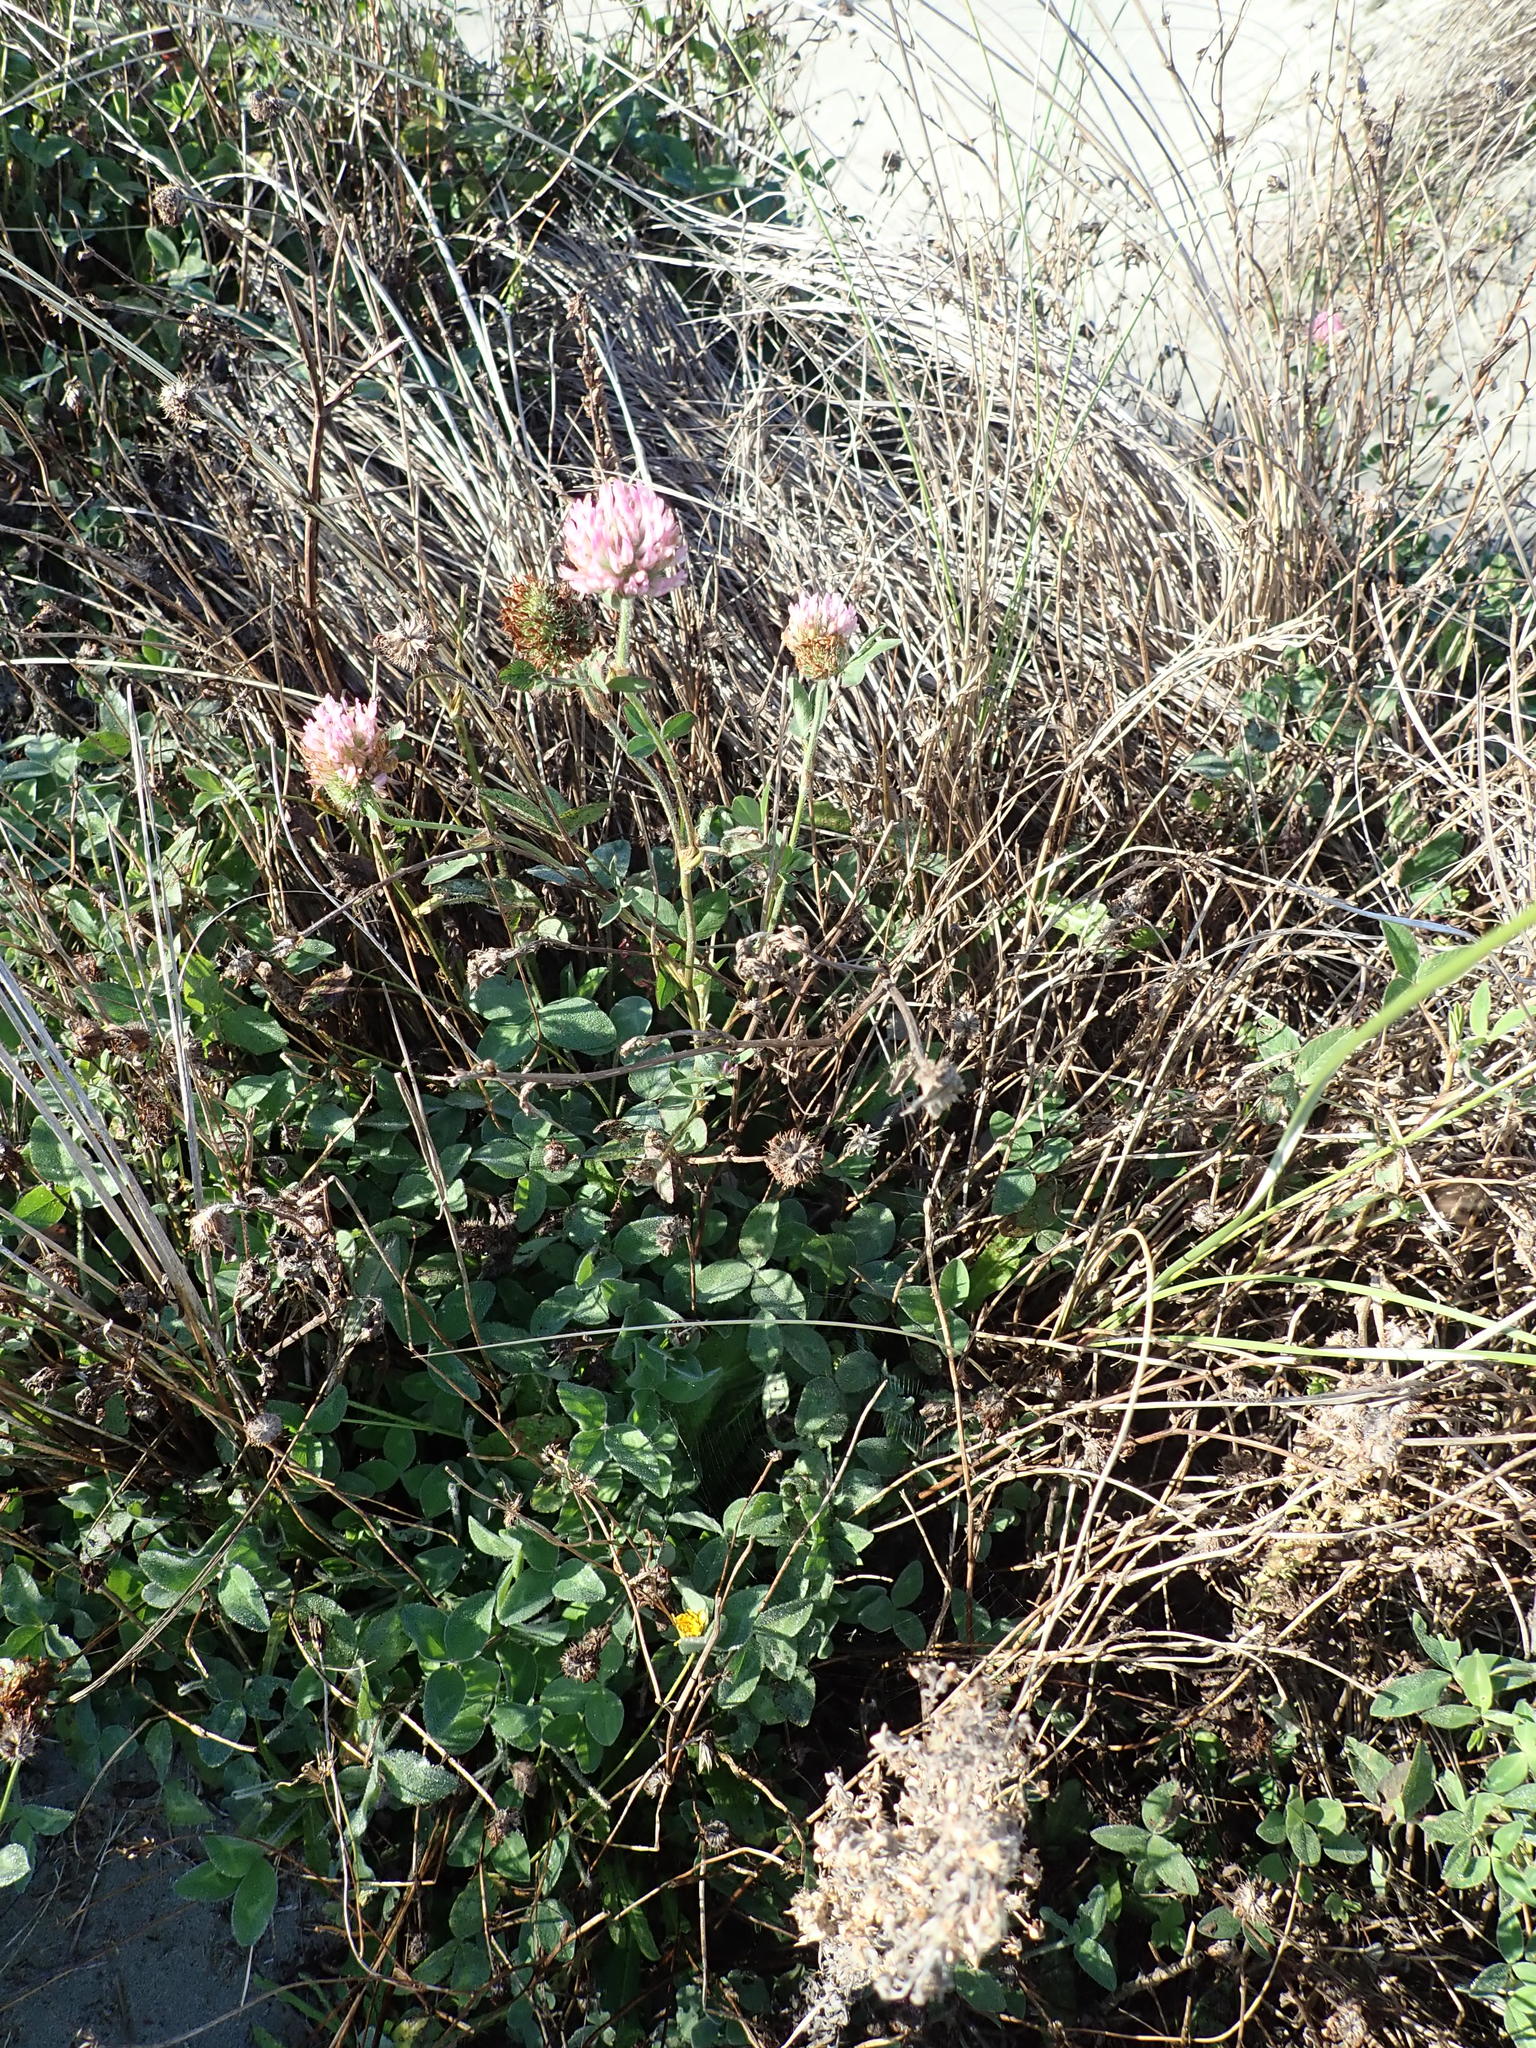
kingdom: Plantae
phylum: Tracheophyta
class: Magnoliopsida
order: Fabales
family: Fabaceae
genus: Trifolium
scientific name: Trifolium pratense
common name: Red clover
